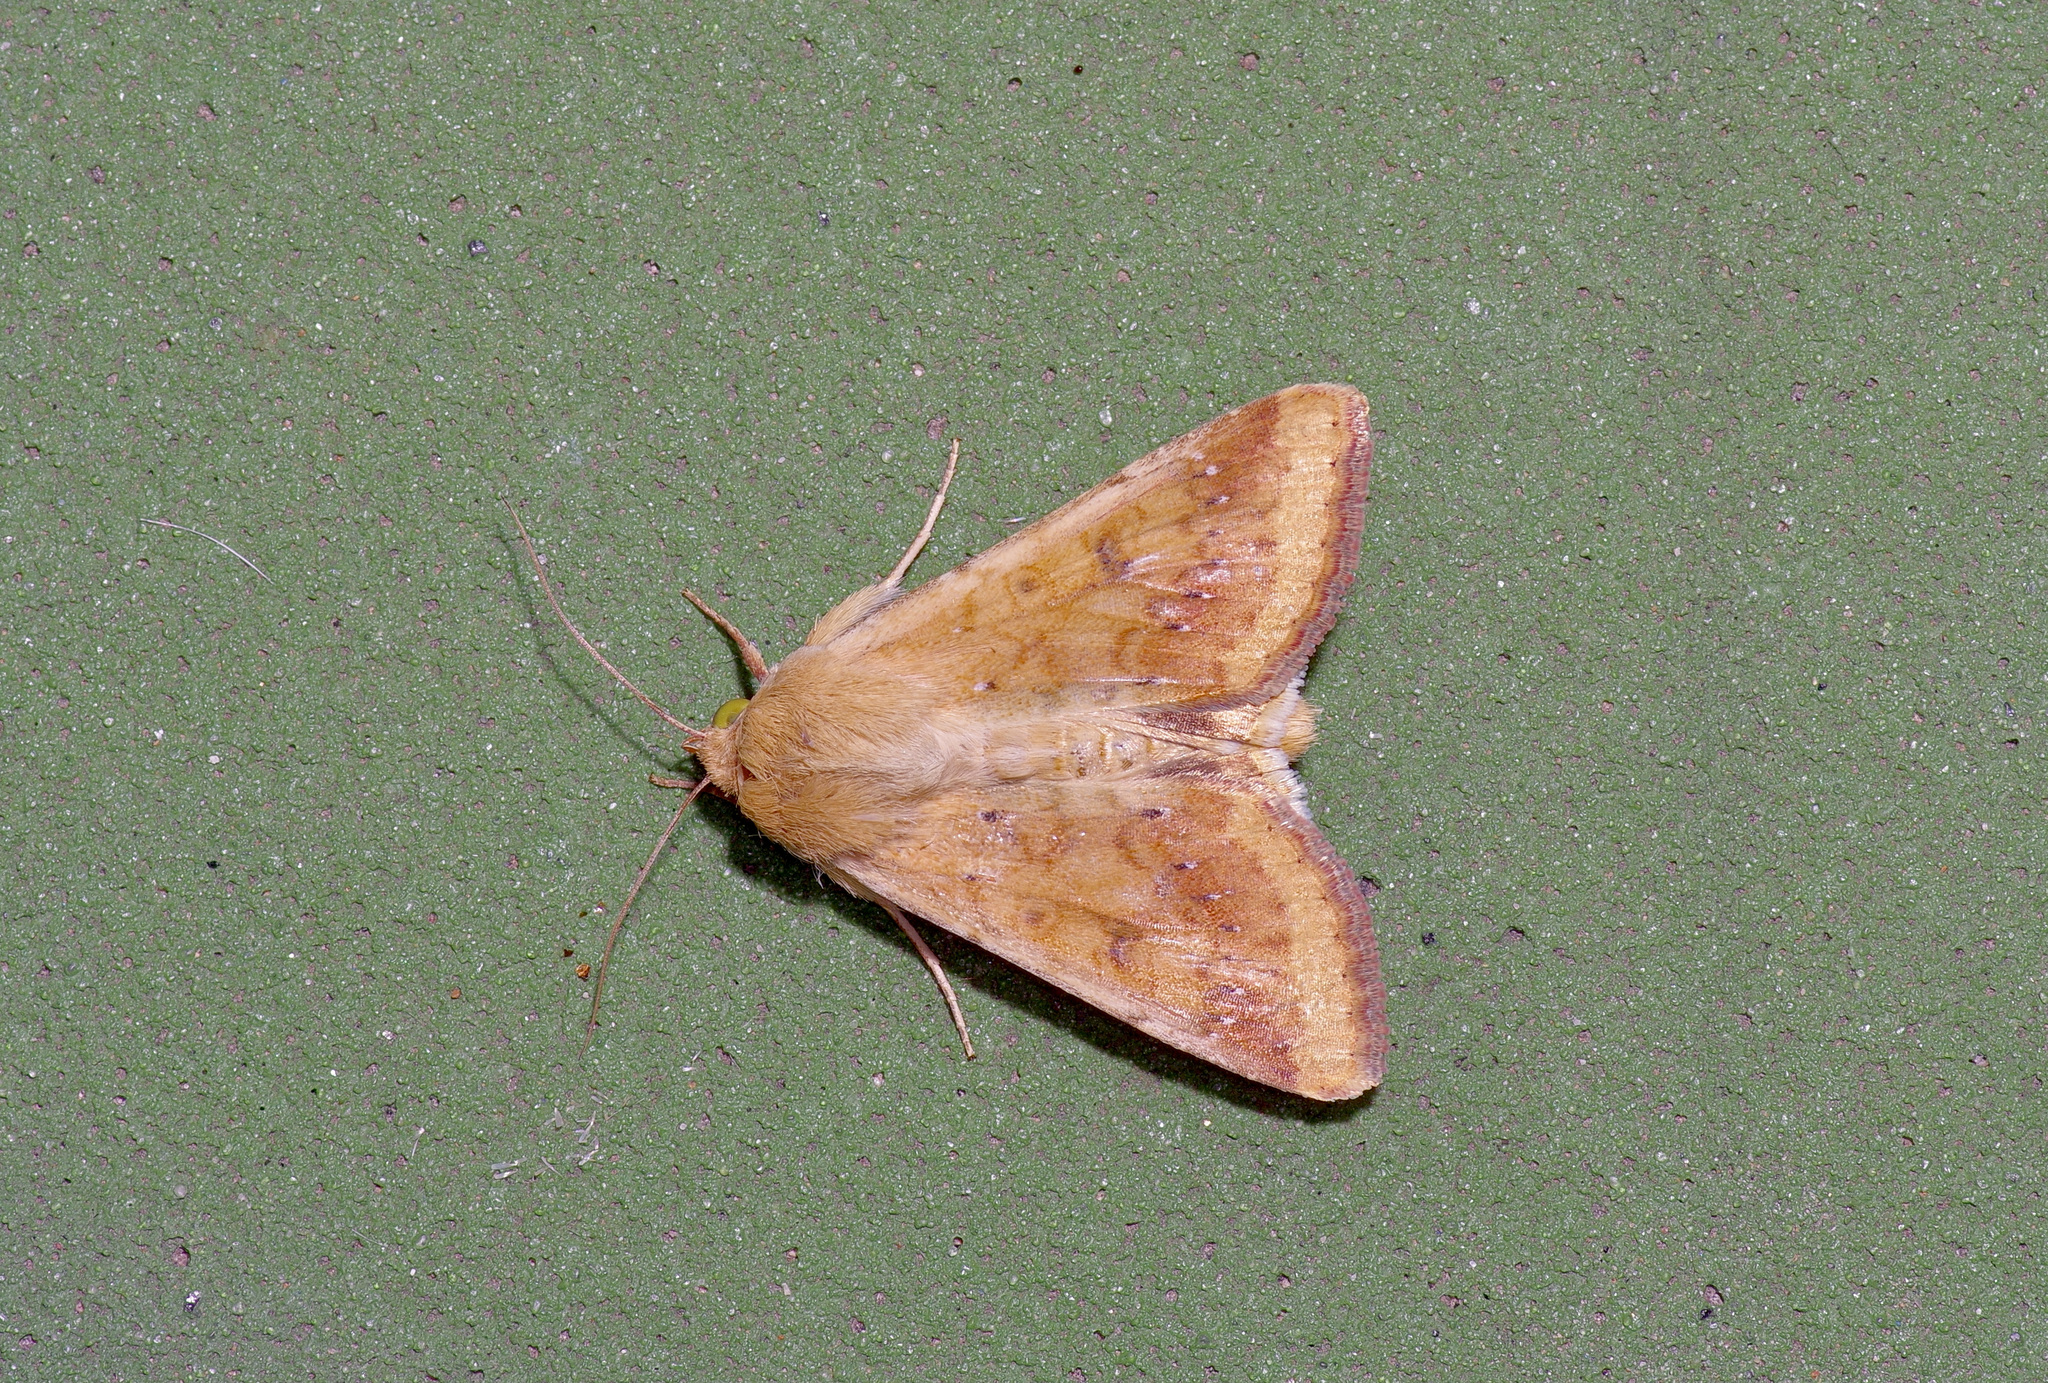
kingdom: Animalia
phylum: Arthropoda
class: Insecta
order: Lepidoptera
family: Noctuidae
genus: Helicoverpa
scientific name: Helicoverpa zea
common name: Bollworm
